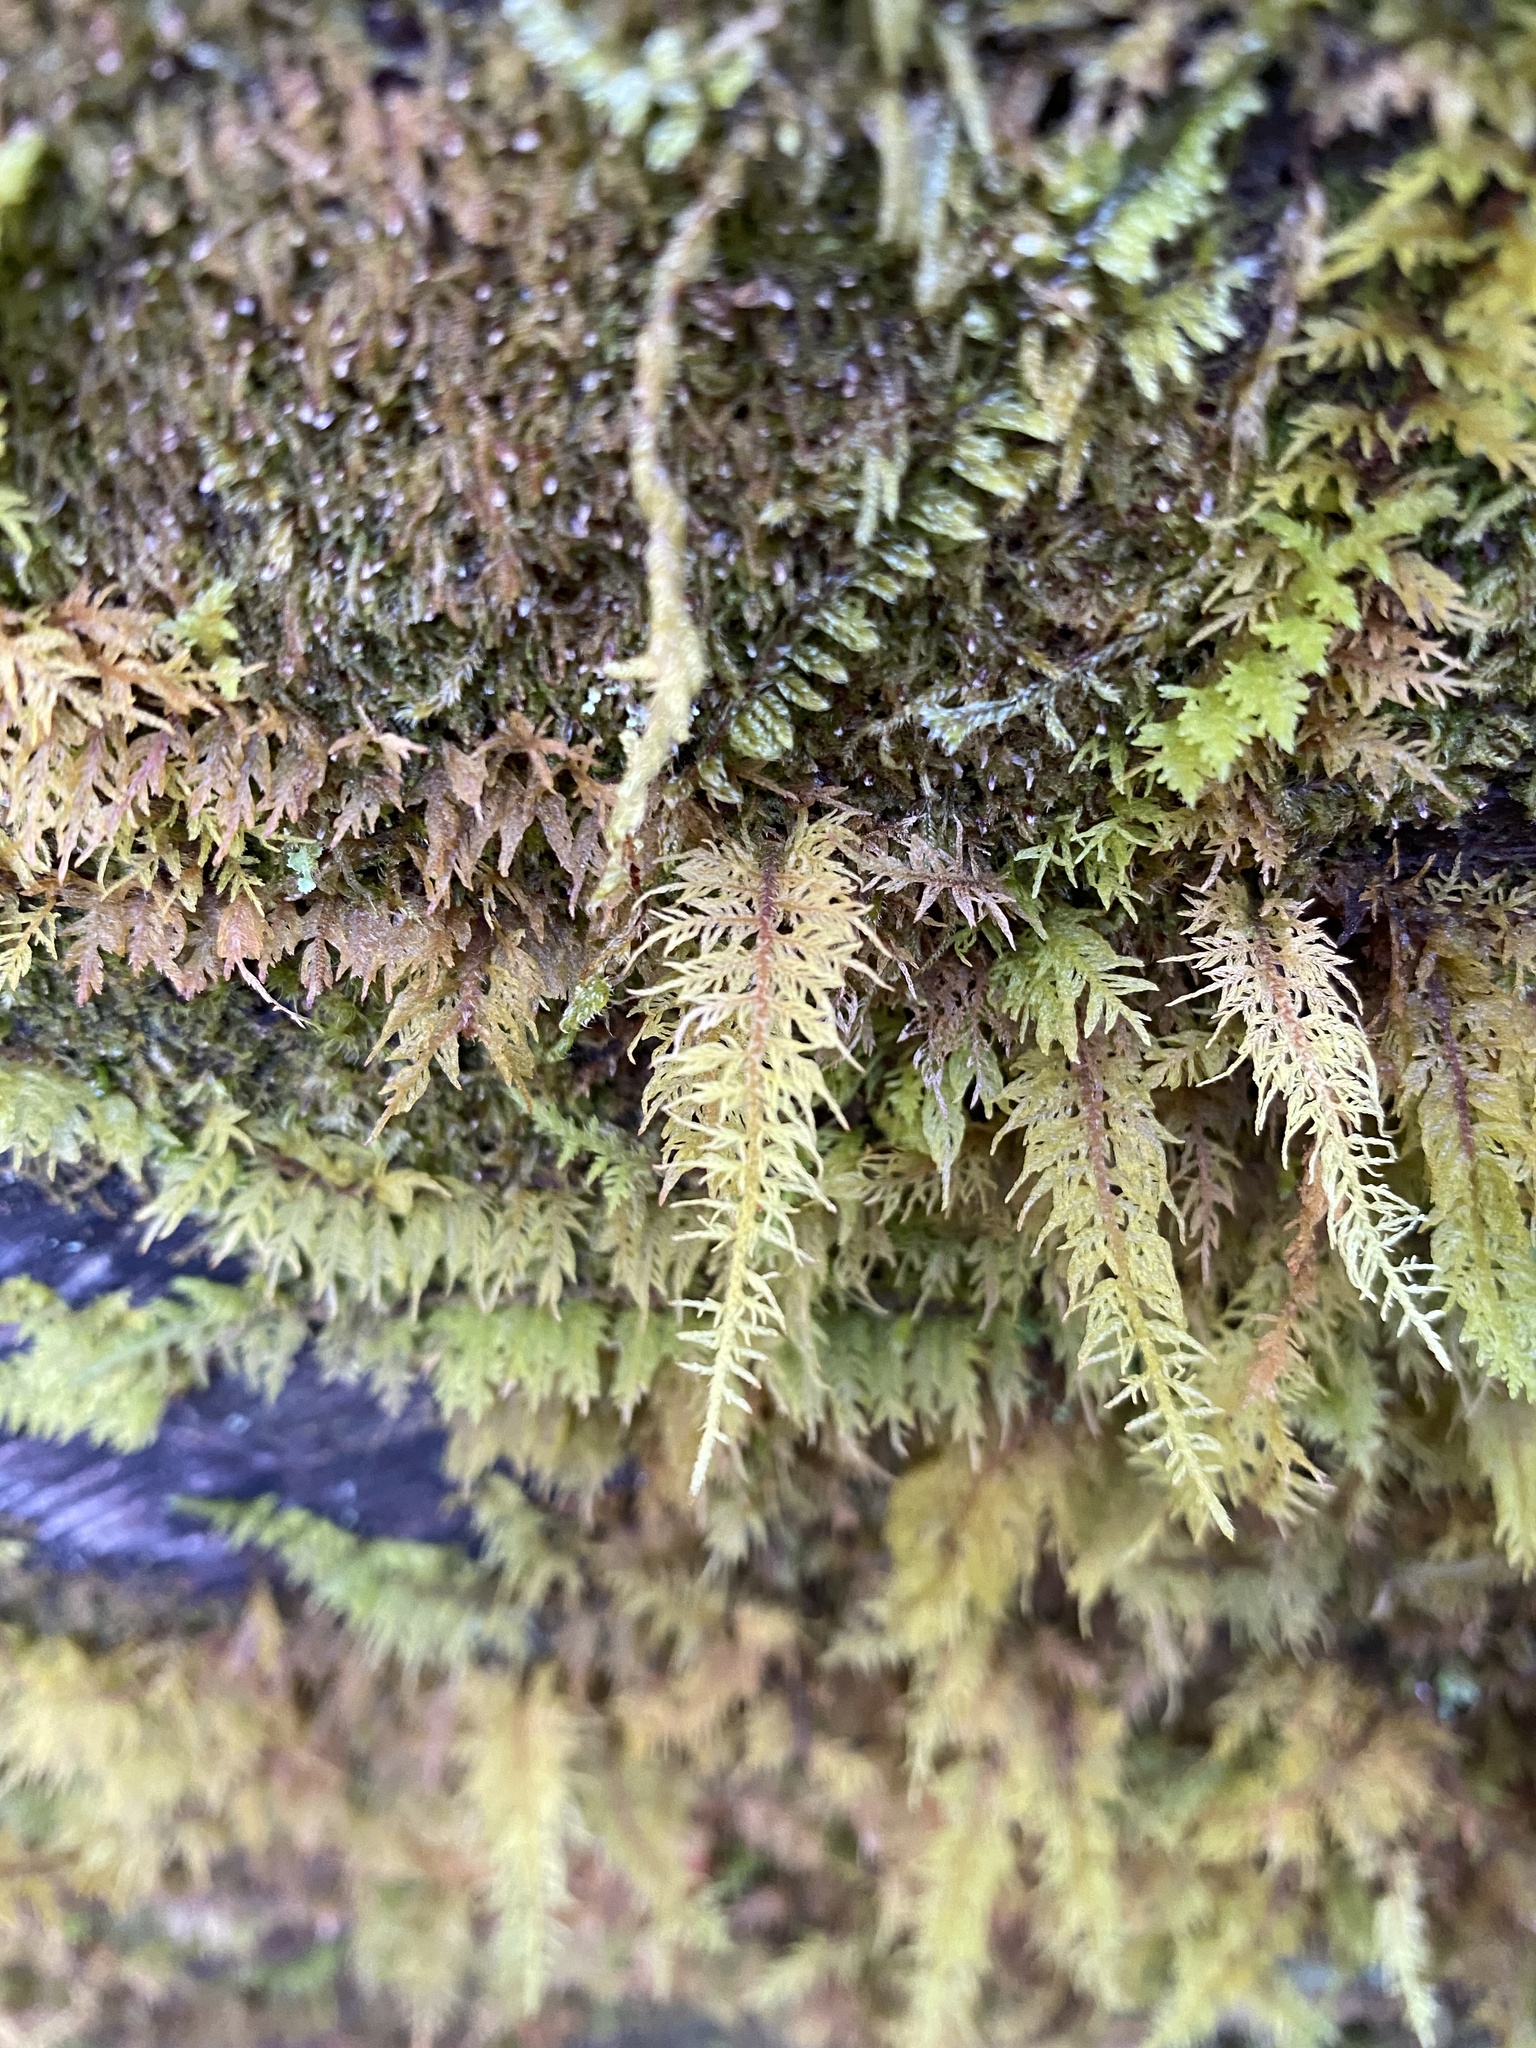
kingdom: Plantae
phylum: Bryophyta
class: Bryopsida
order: Hypnales
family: Thuidiaceae
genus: Thuidium
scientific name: Thuidium delicatulum
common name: Delicate fern moss
